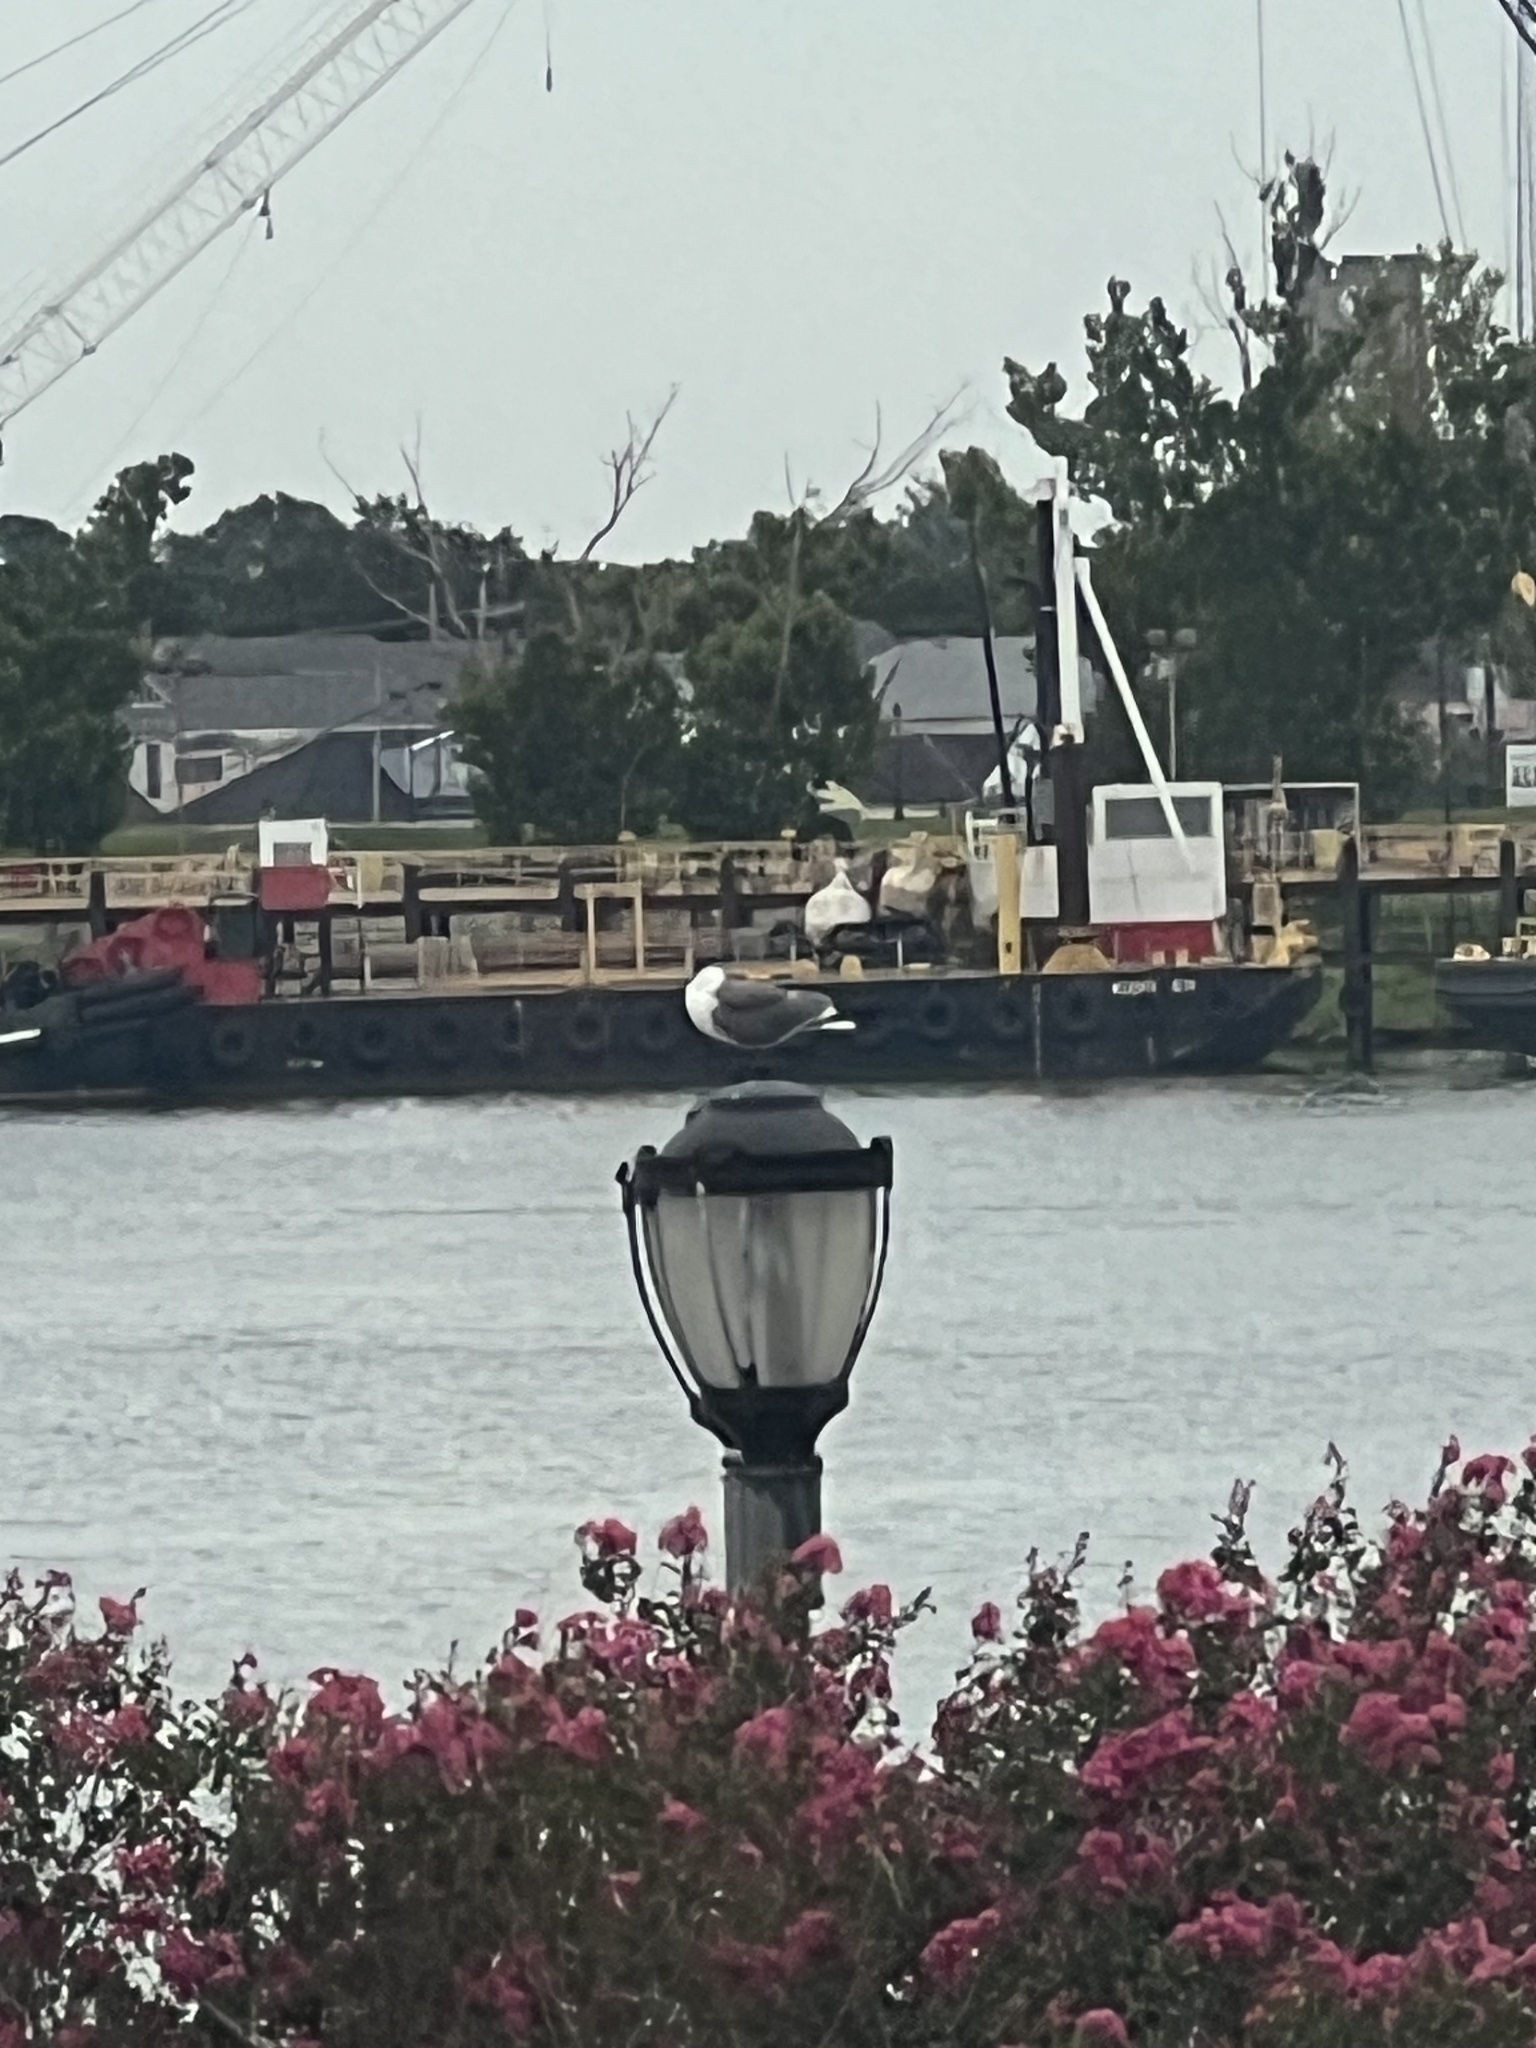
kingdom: Animalia
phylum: Chordata
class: Aves
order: Charadriiformes
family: Laridae
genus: Leucophaeus
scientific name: Leucophaeus atricilla
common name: Laughing gull
